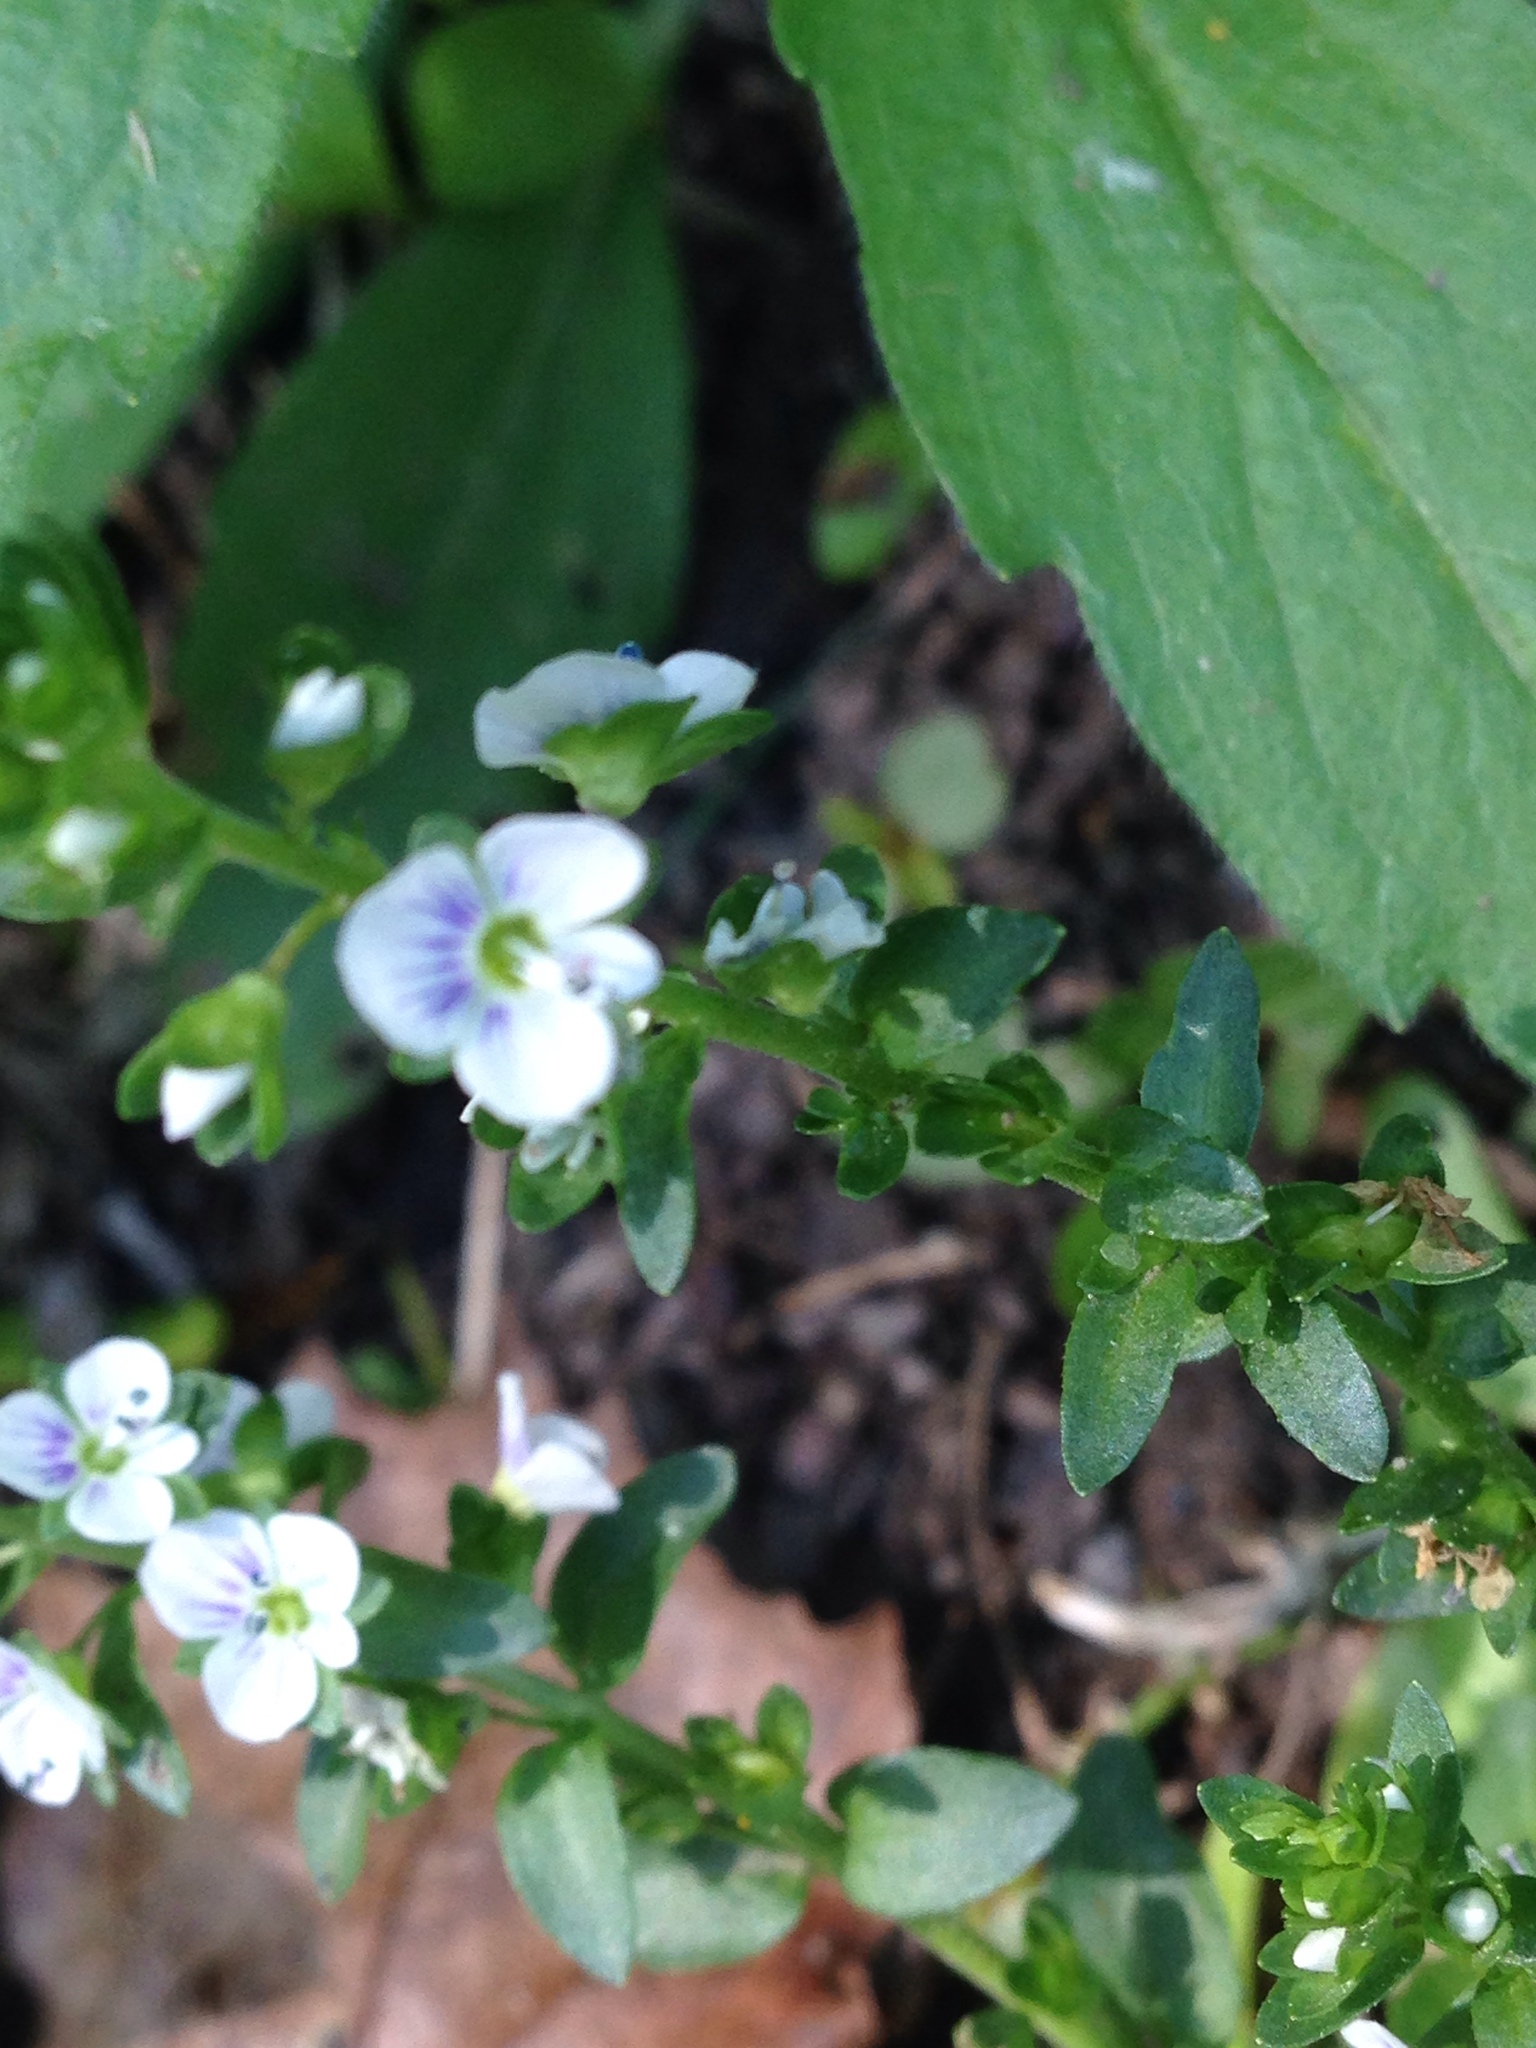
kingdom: Plantae
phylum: Tracheophyta
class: Magnoliopsida
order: Lamiales
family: Plantaginaceae
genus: Veronica
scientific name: Veronica serpyllifolia
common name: Thyme-leaved speedwell
